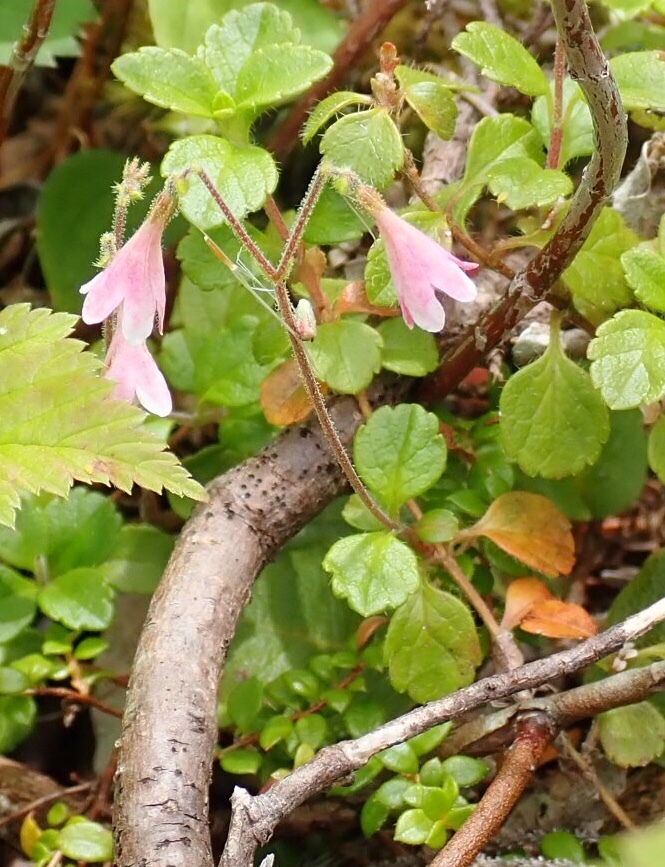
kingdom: Plantae
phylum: Tracheophyta
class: Magnoliopsida
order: Dipsacales
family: Caprifoliaceae
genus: Linnaea
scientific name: Linnaea borealis
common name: Twinflower
